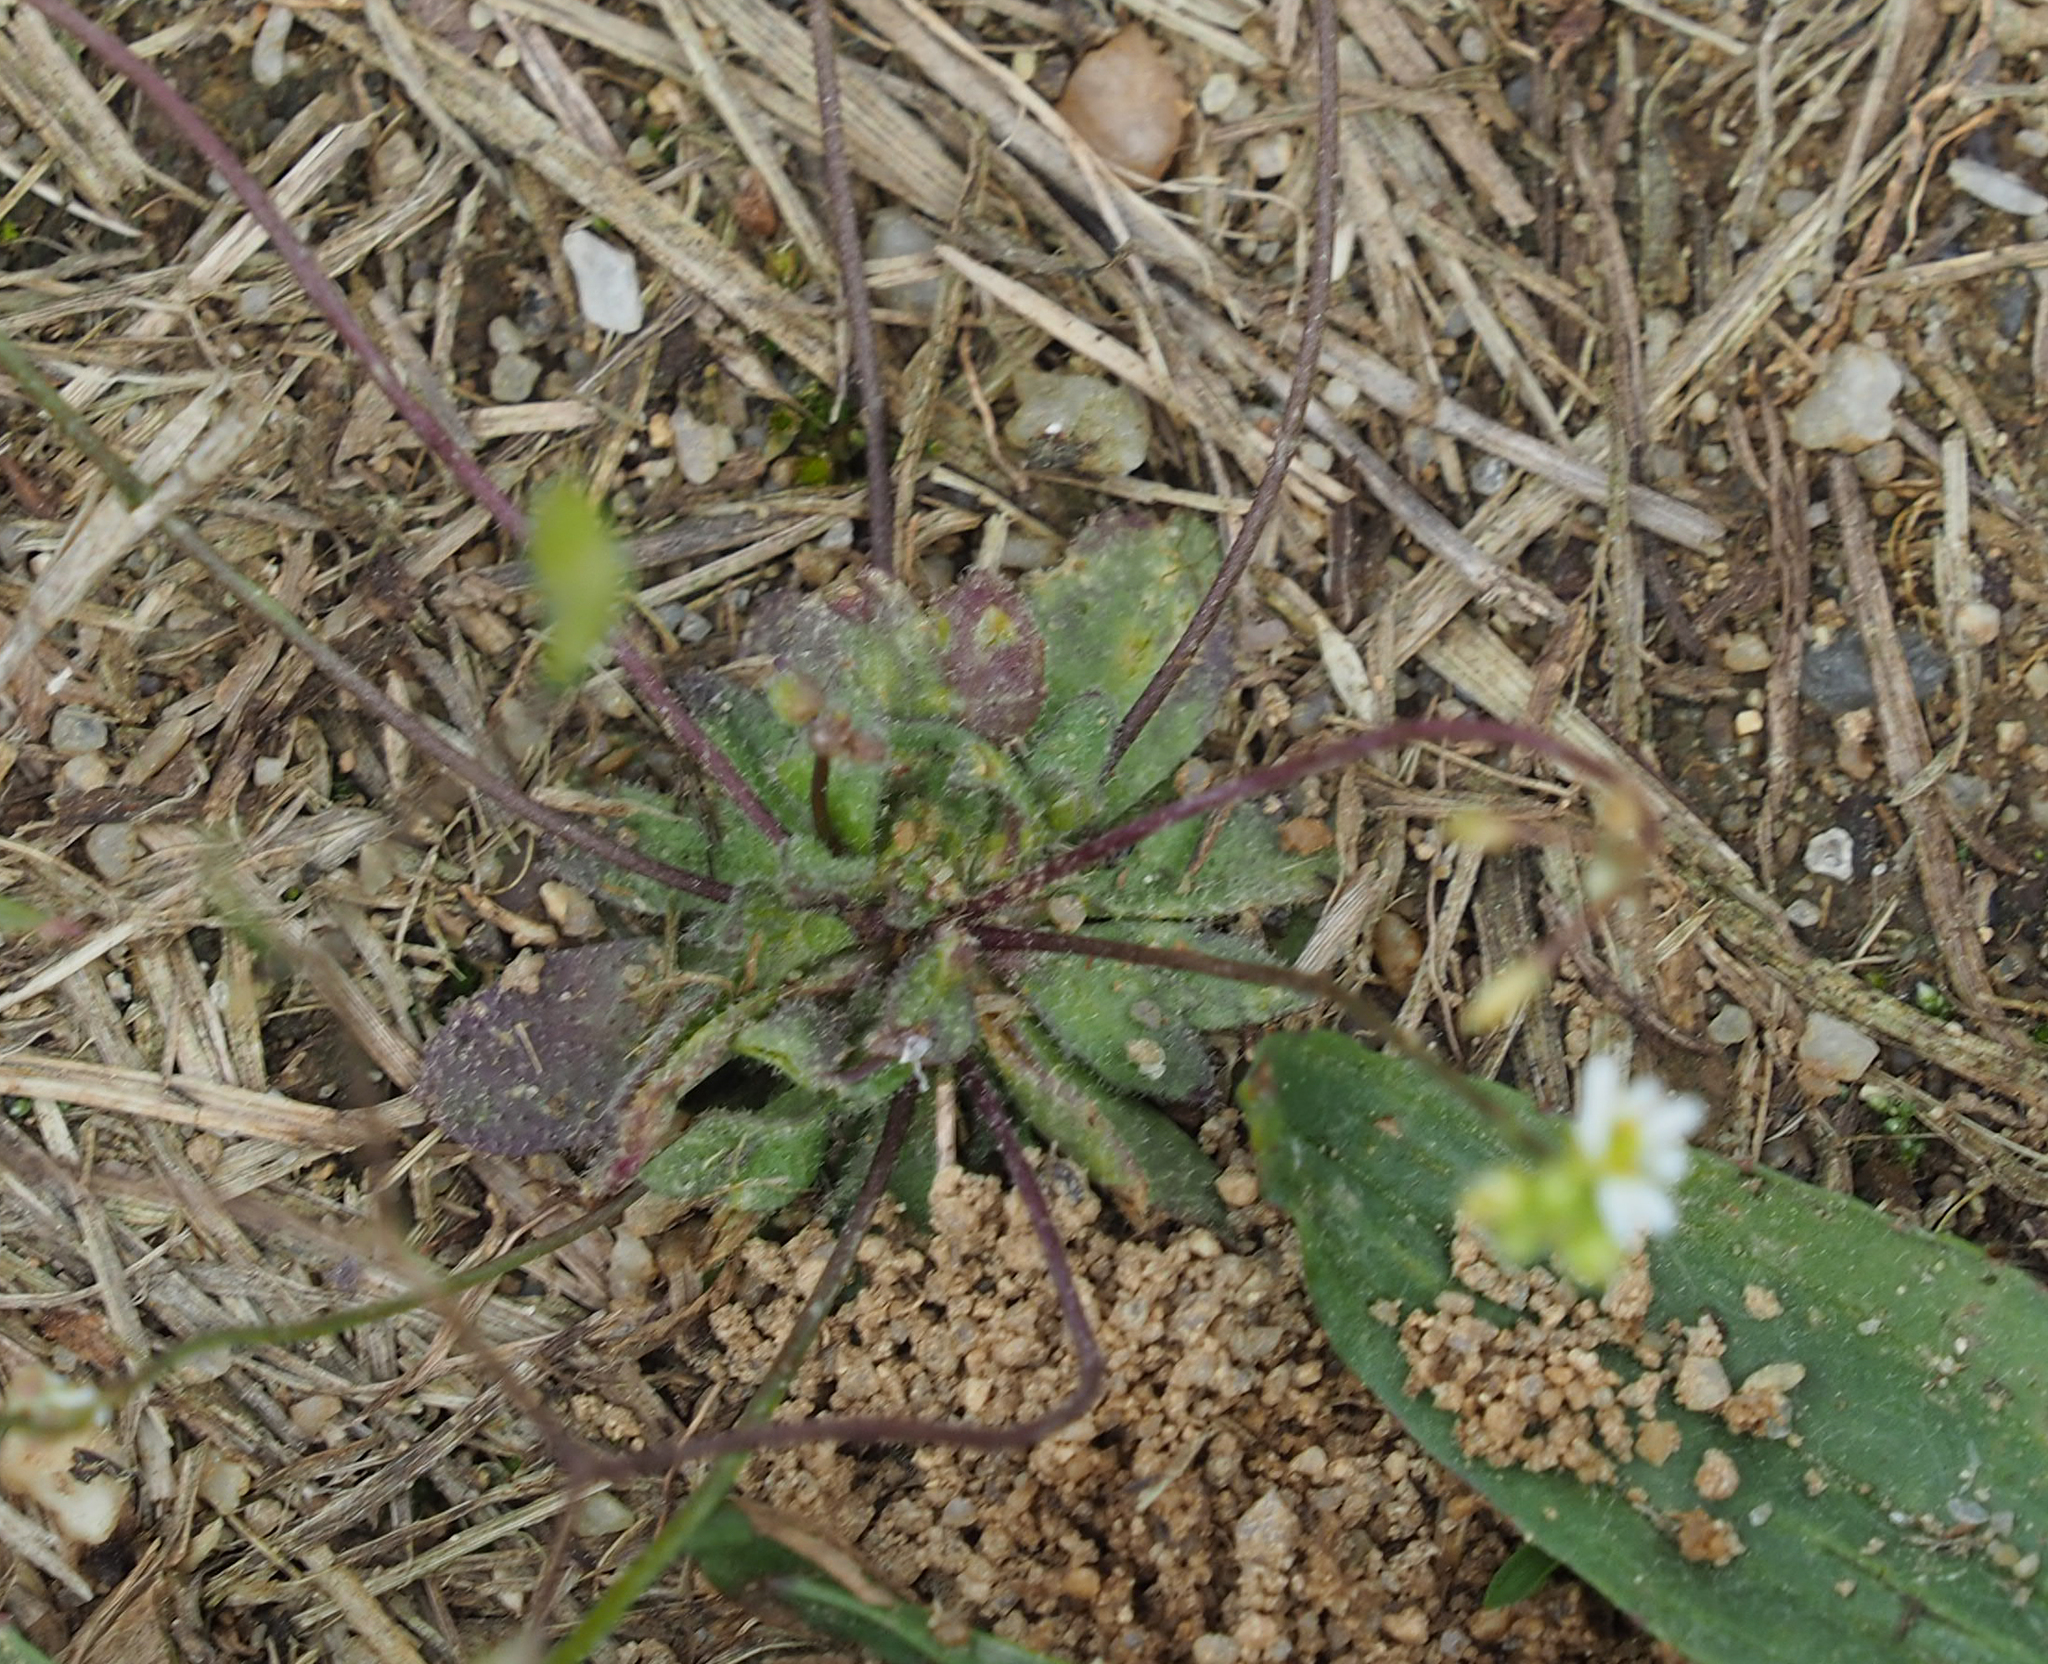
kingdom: Plantae
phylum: Tracheophyta
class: Magnoliopsida
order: Brassicales
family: Brassicaceae
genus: Draba
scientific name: Draba verna
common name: Spring draba
